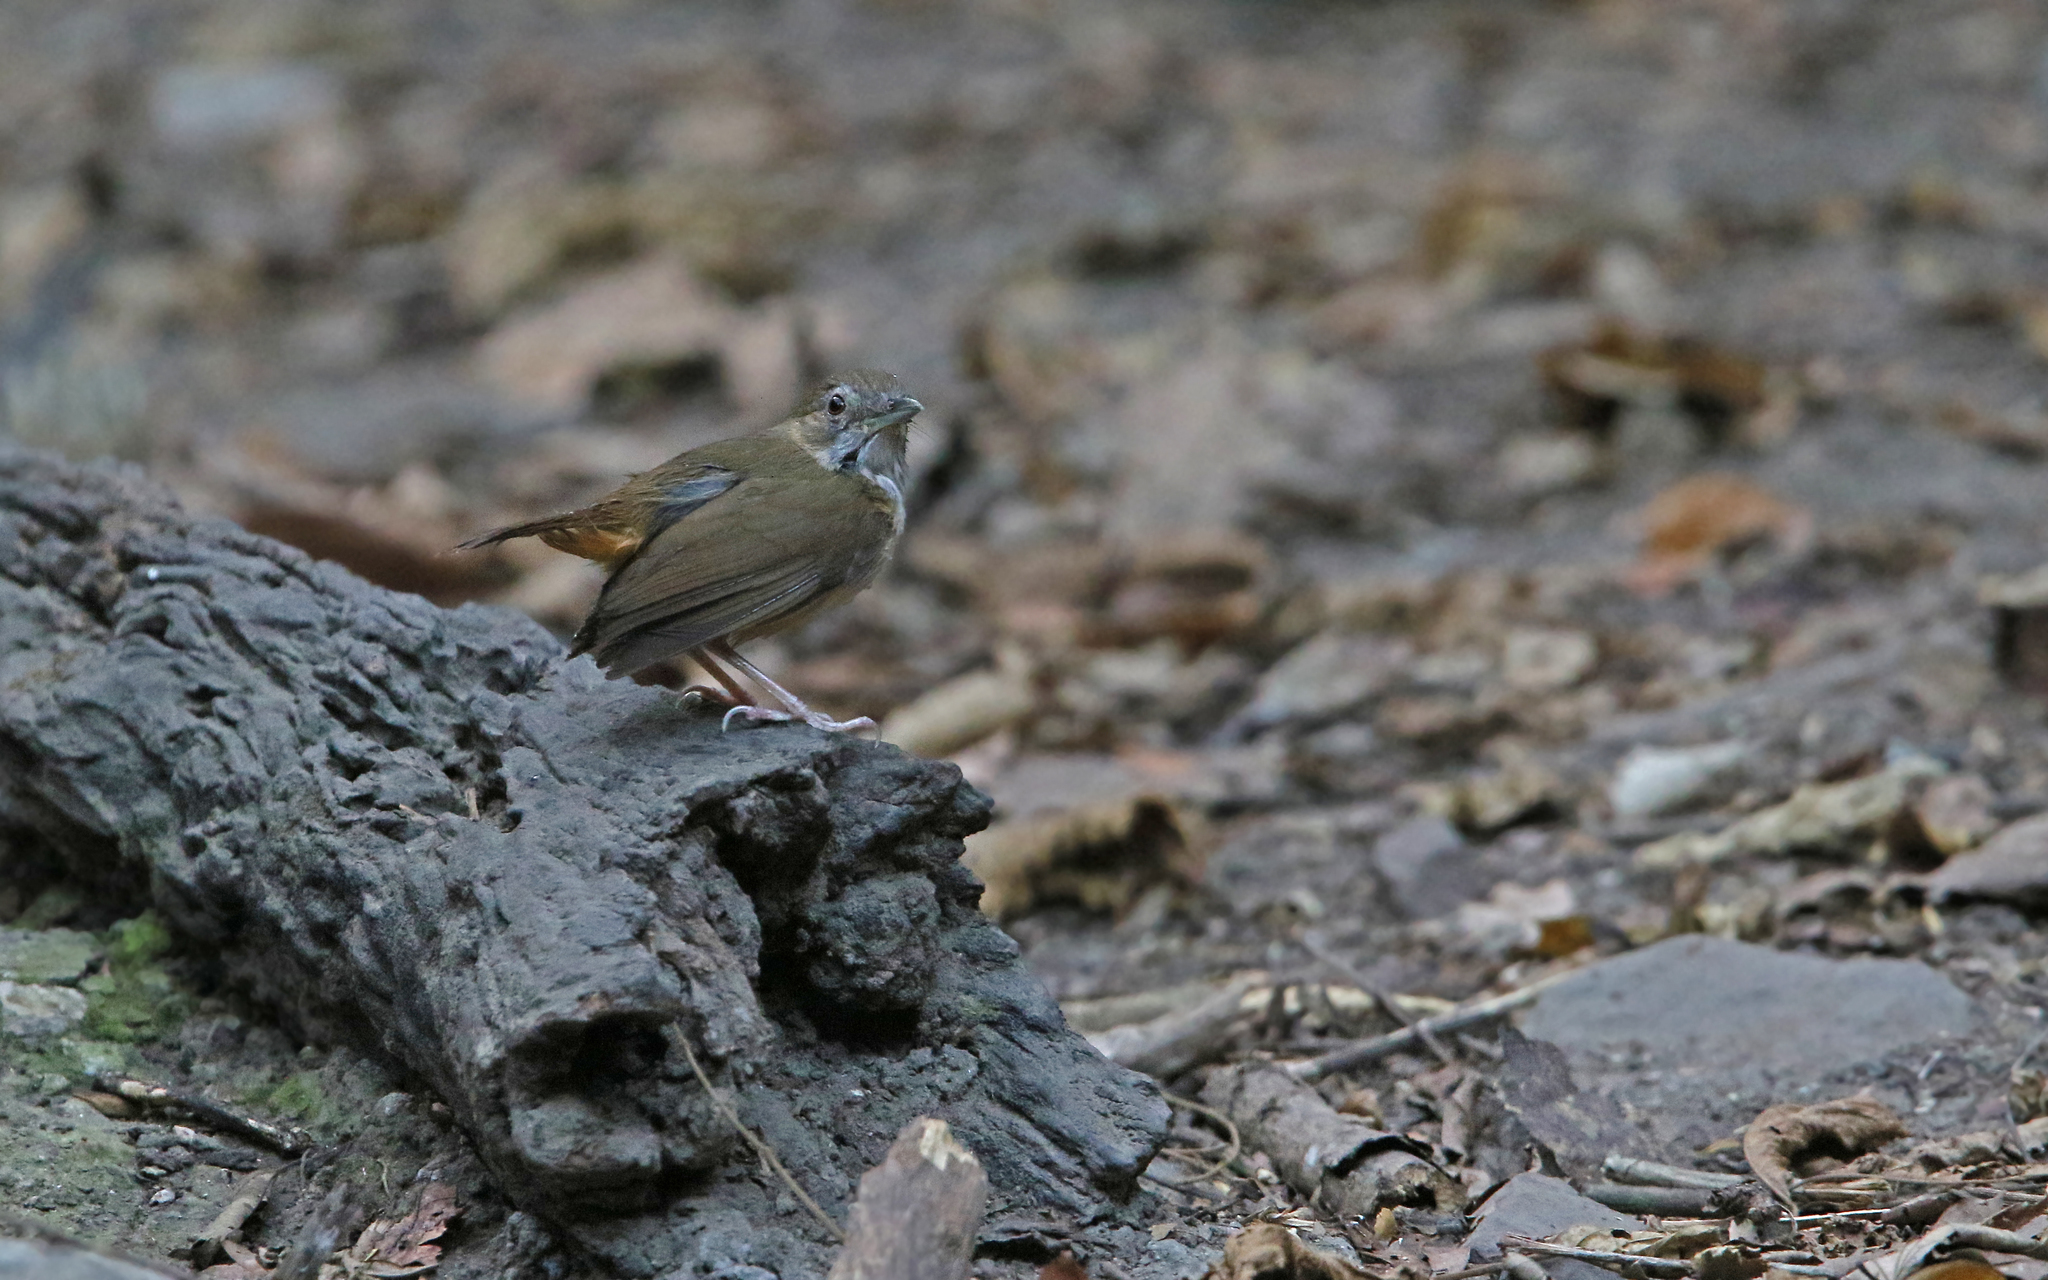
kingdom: Animalia
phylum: Chordata
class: Aves
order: Passeriformes
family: Pellorneidae
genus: Malacocincla
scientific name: Malacocincla abbotti
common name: Abbott's babbler
